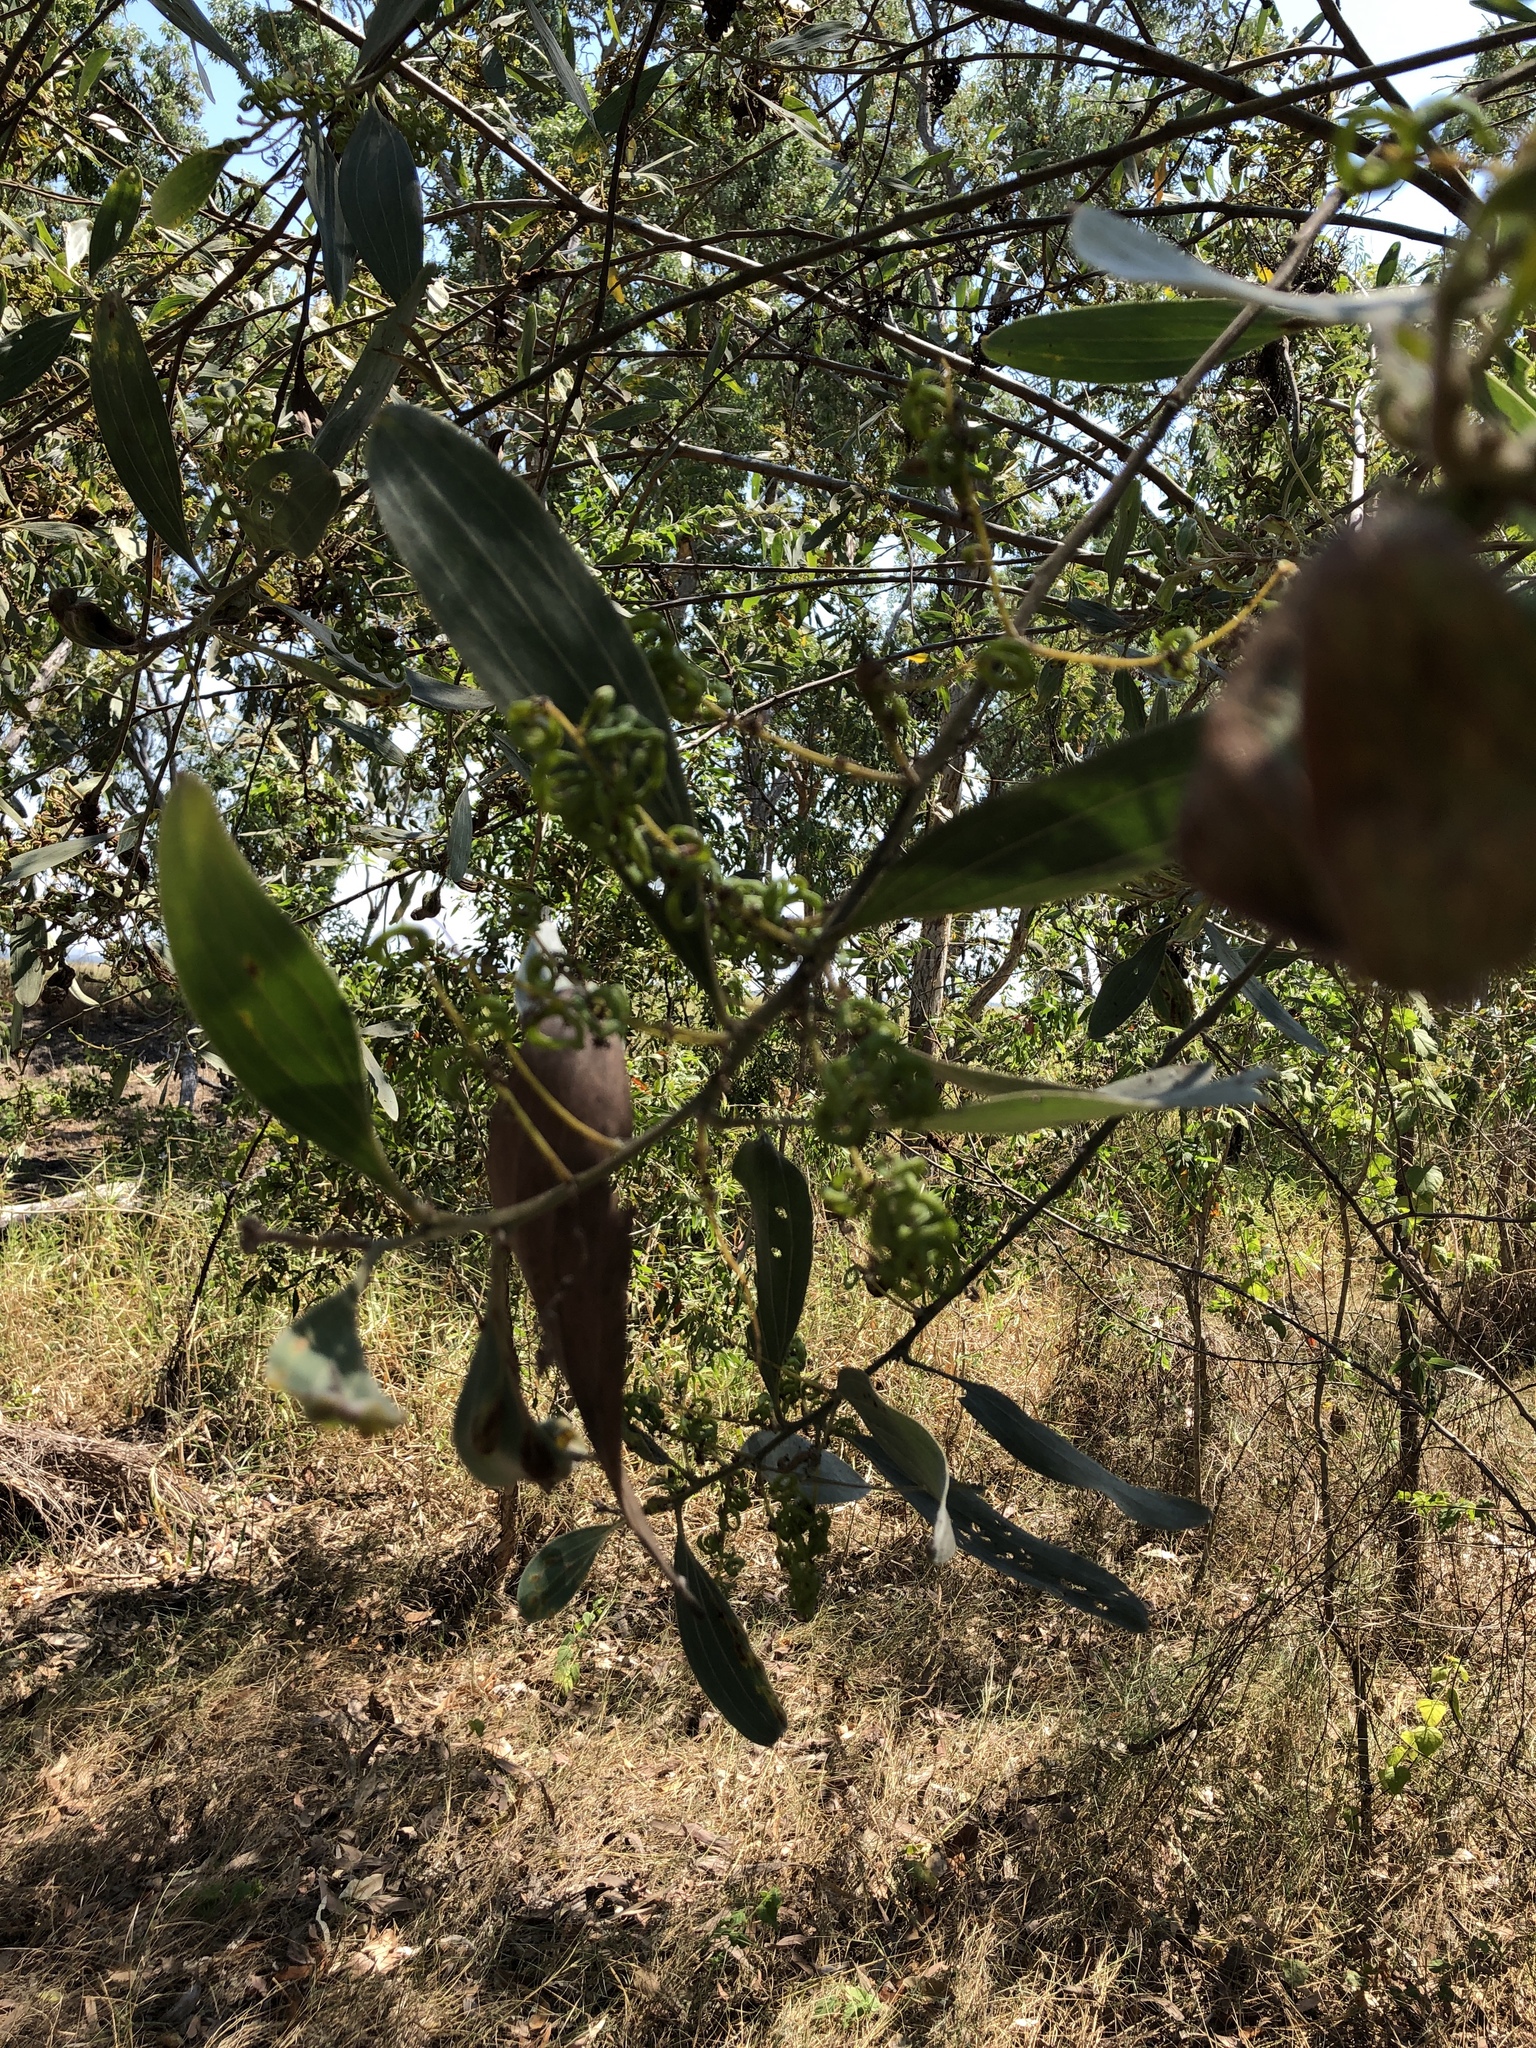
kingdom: Plantae
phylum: Tracheophyta
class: Magnoliopsida
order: Fabales
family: Fabaceae
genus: Acacia
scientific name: Acacia holosericea
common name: Candelabra wattle
